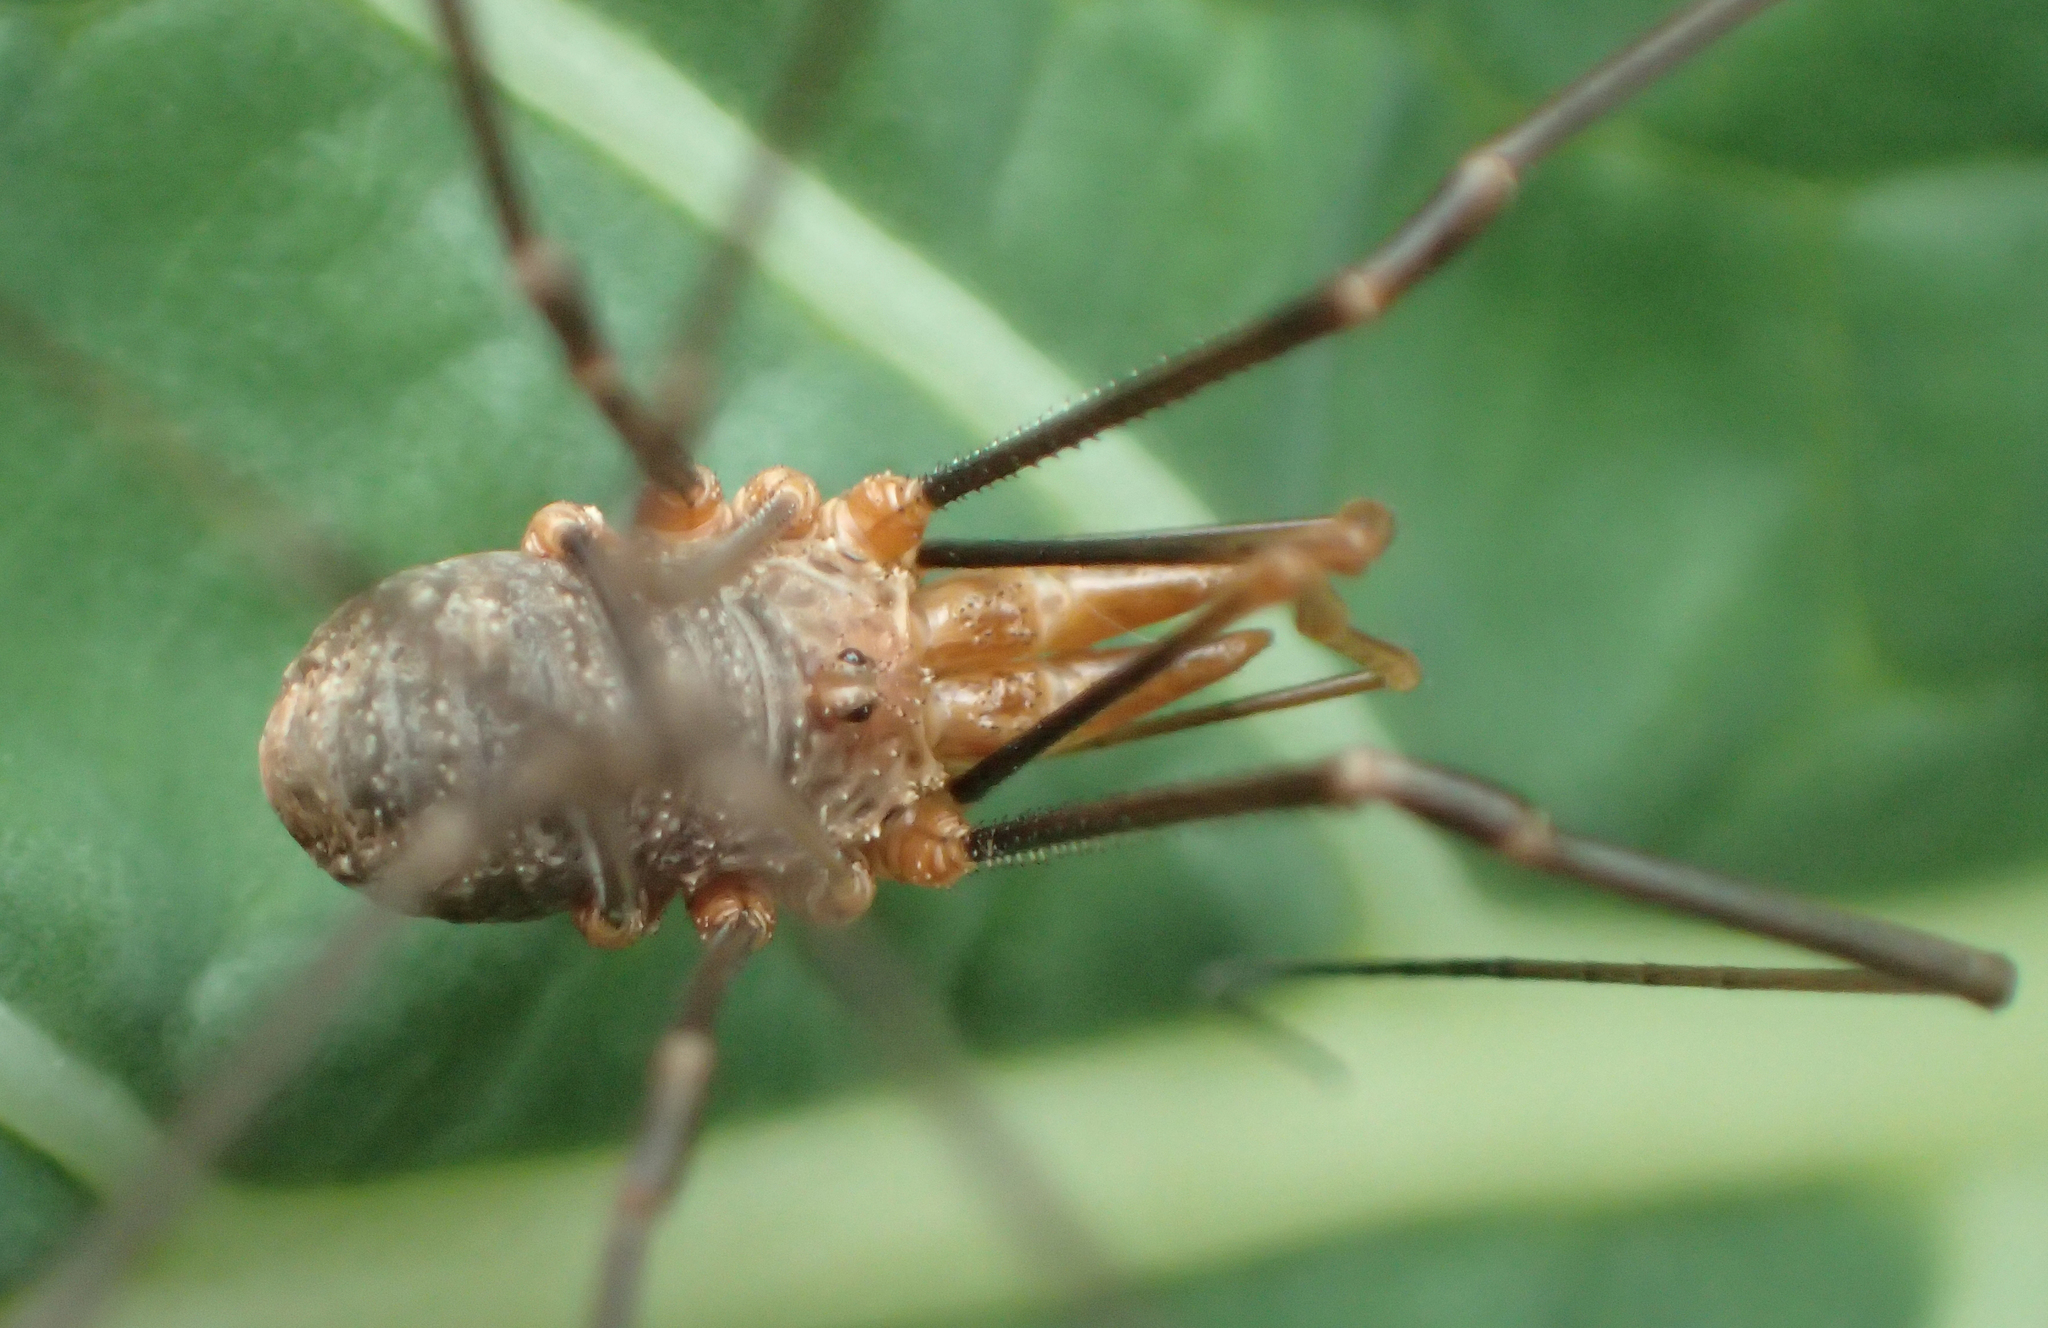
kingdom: Animalia
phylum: Arthropoda
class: Arachnida
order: Opiliones
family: Phalangiidae
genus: Phalangium
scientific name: Phalangium opilio
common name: Daddy longleg
